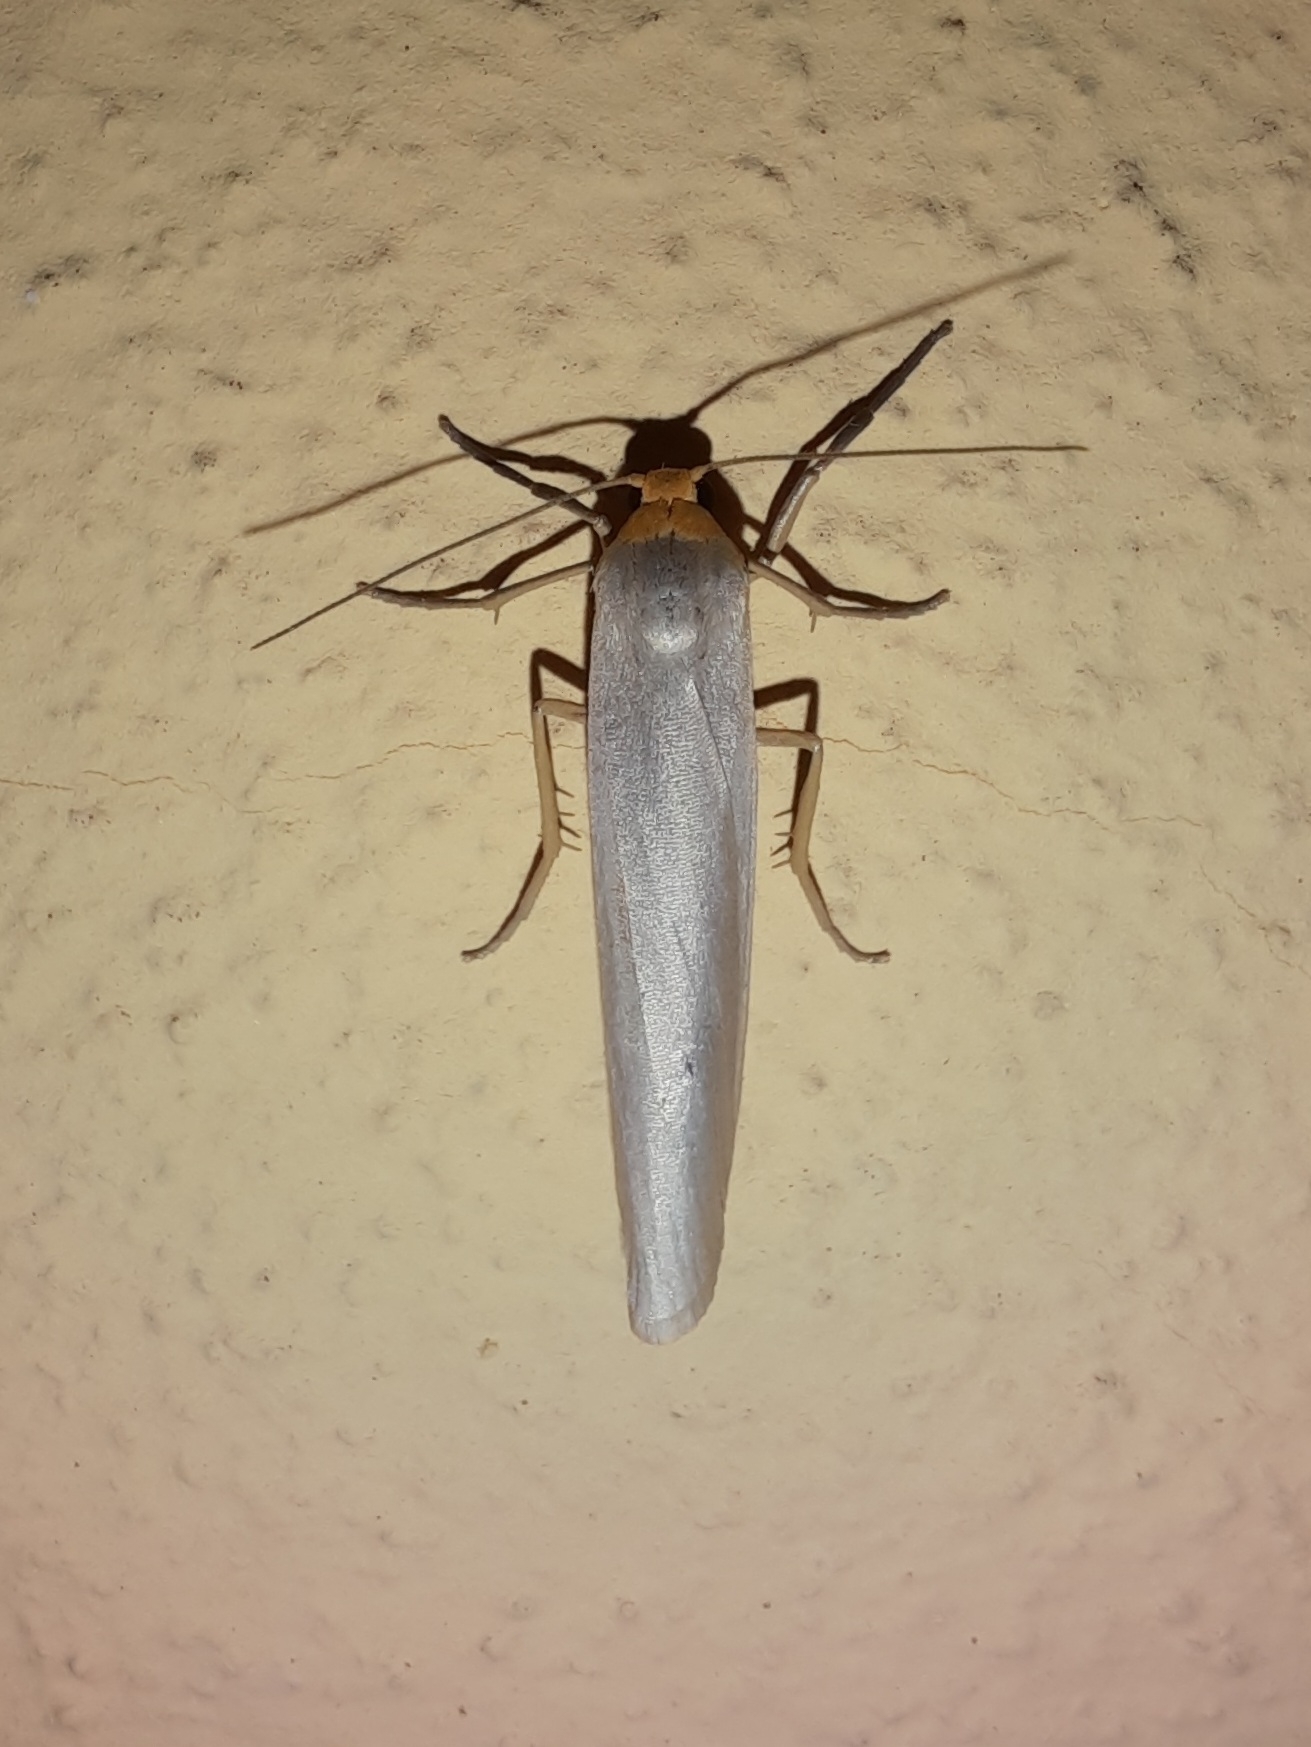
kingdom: Animalia
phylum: Arthropoda
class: Insecta
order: Lepidoptera
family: Erebidae
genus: Eilema
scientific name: Eilema caniola
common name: Hoary footman
